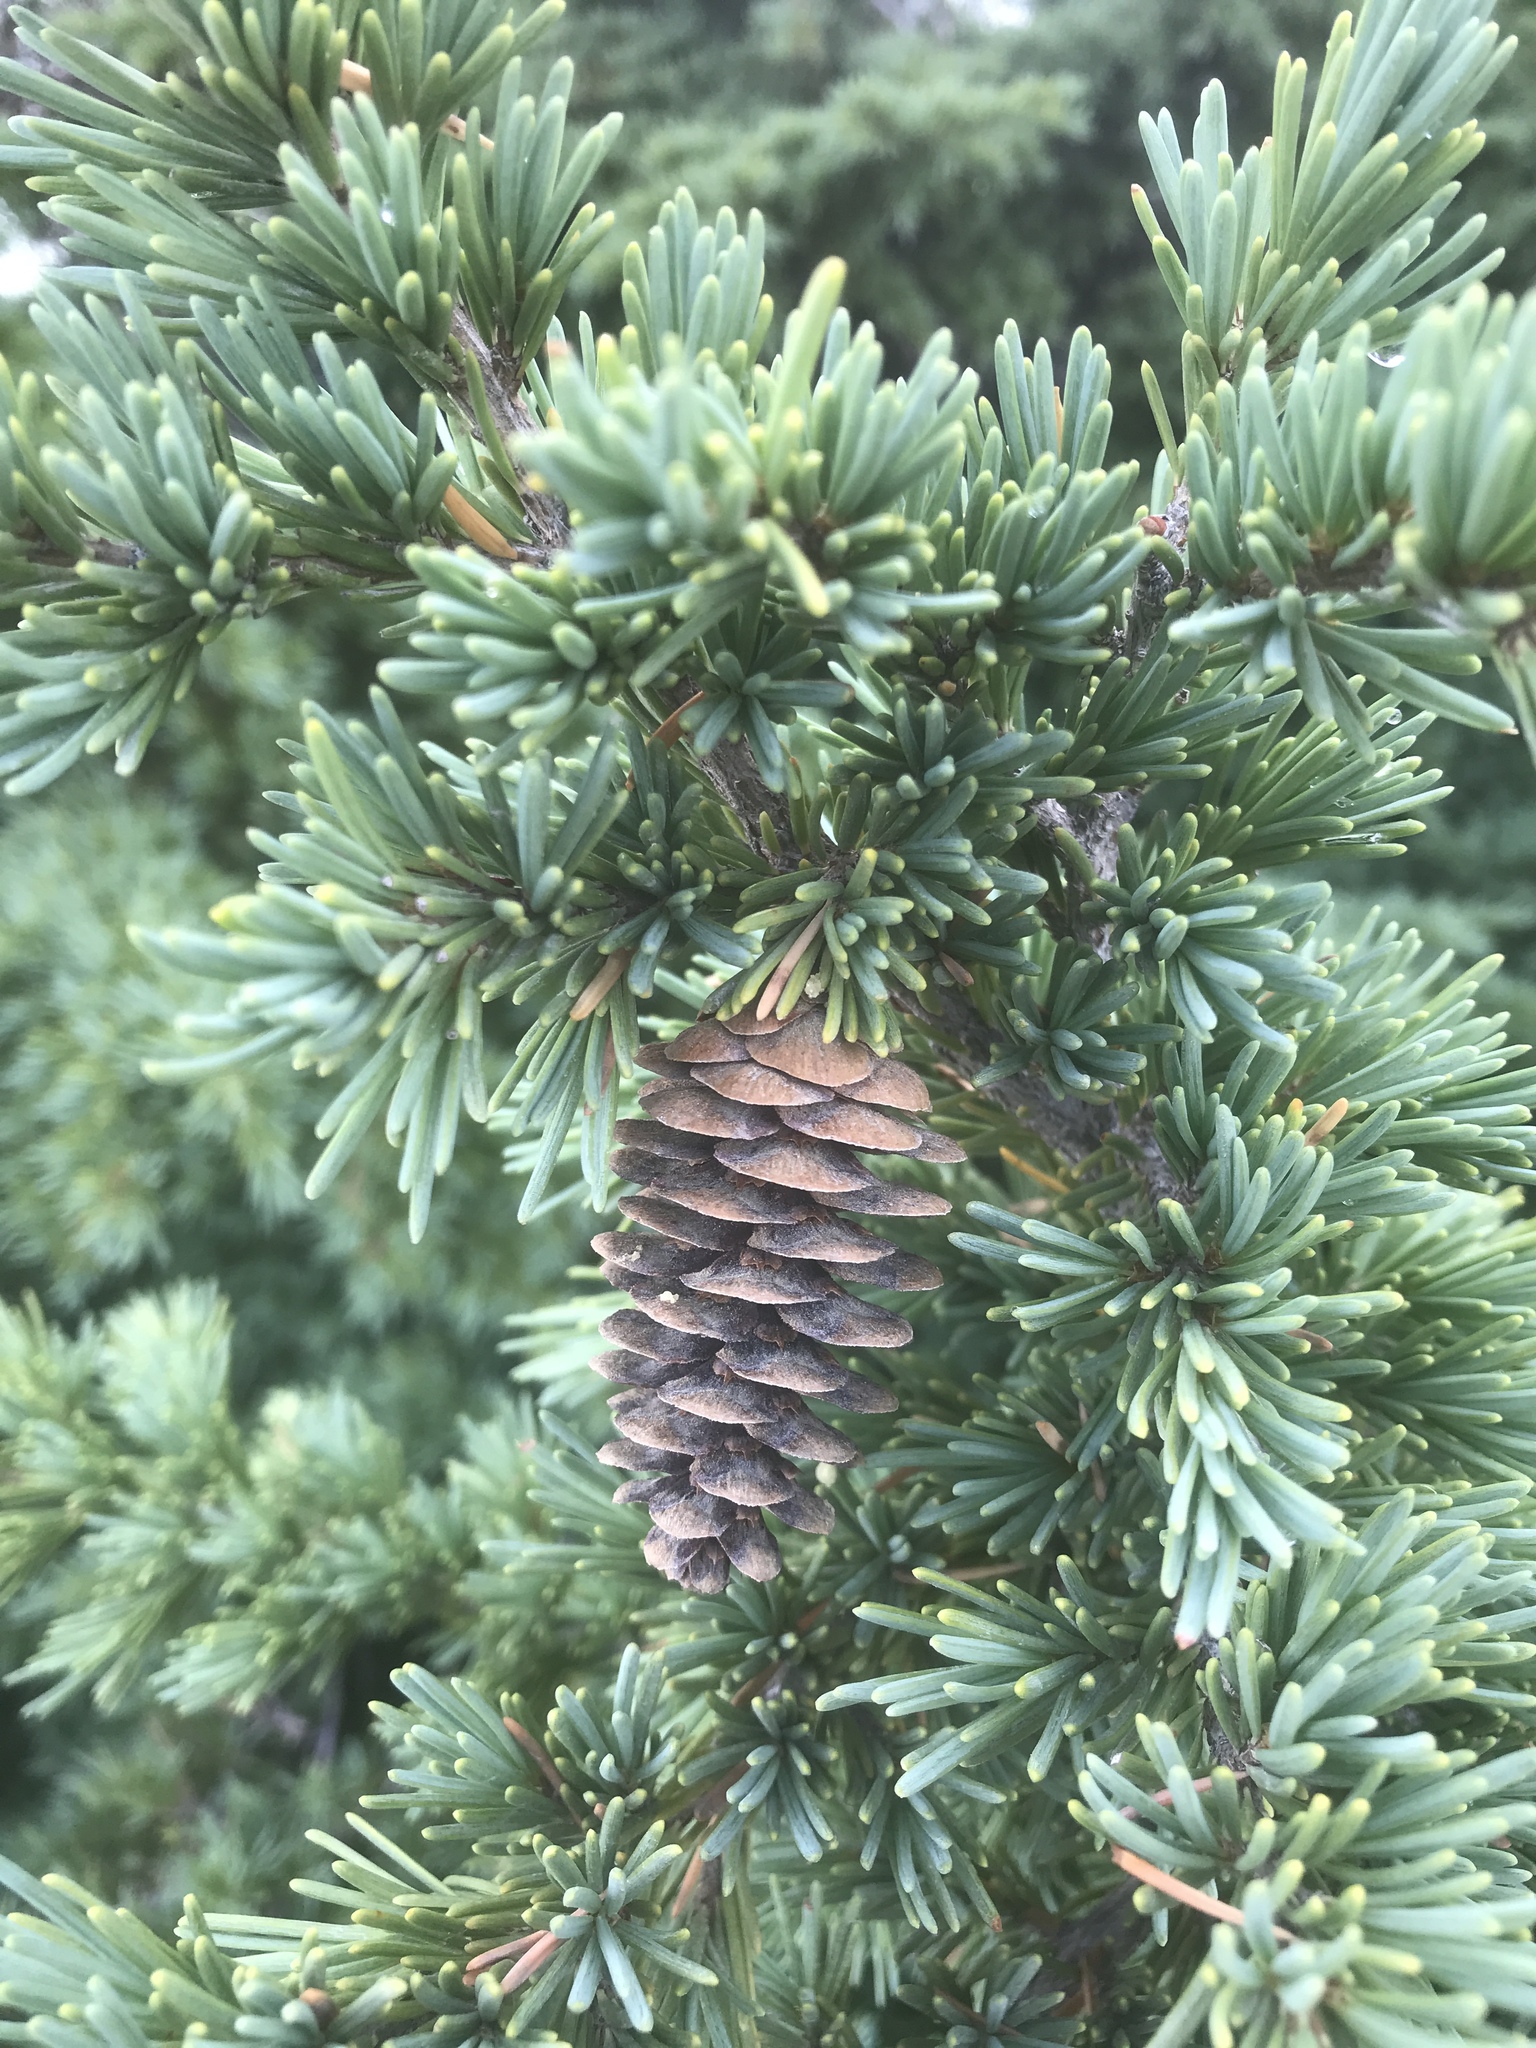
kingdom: Plantae
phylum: Tracheophyta
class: Pinopsida
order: Pinales
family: Pinaceae
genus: Tsuga
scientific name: Tsuga mertensiana
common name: Mountain hemlock
